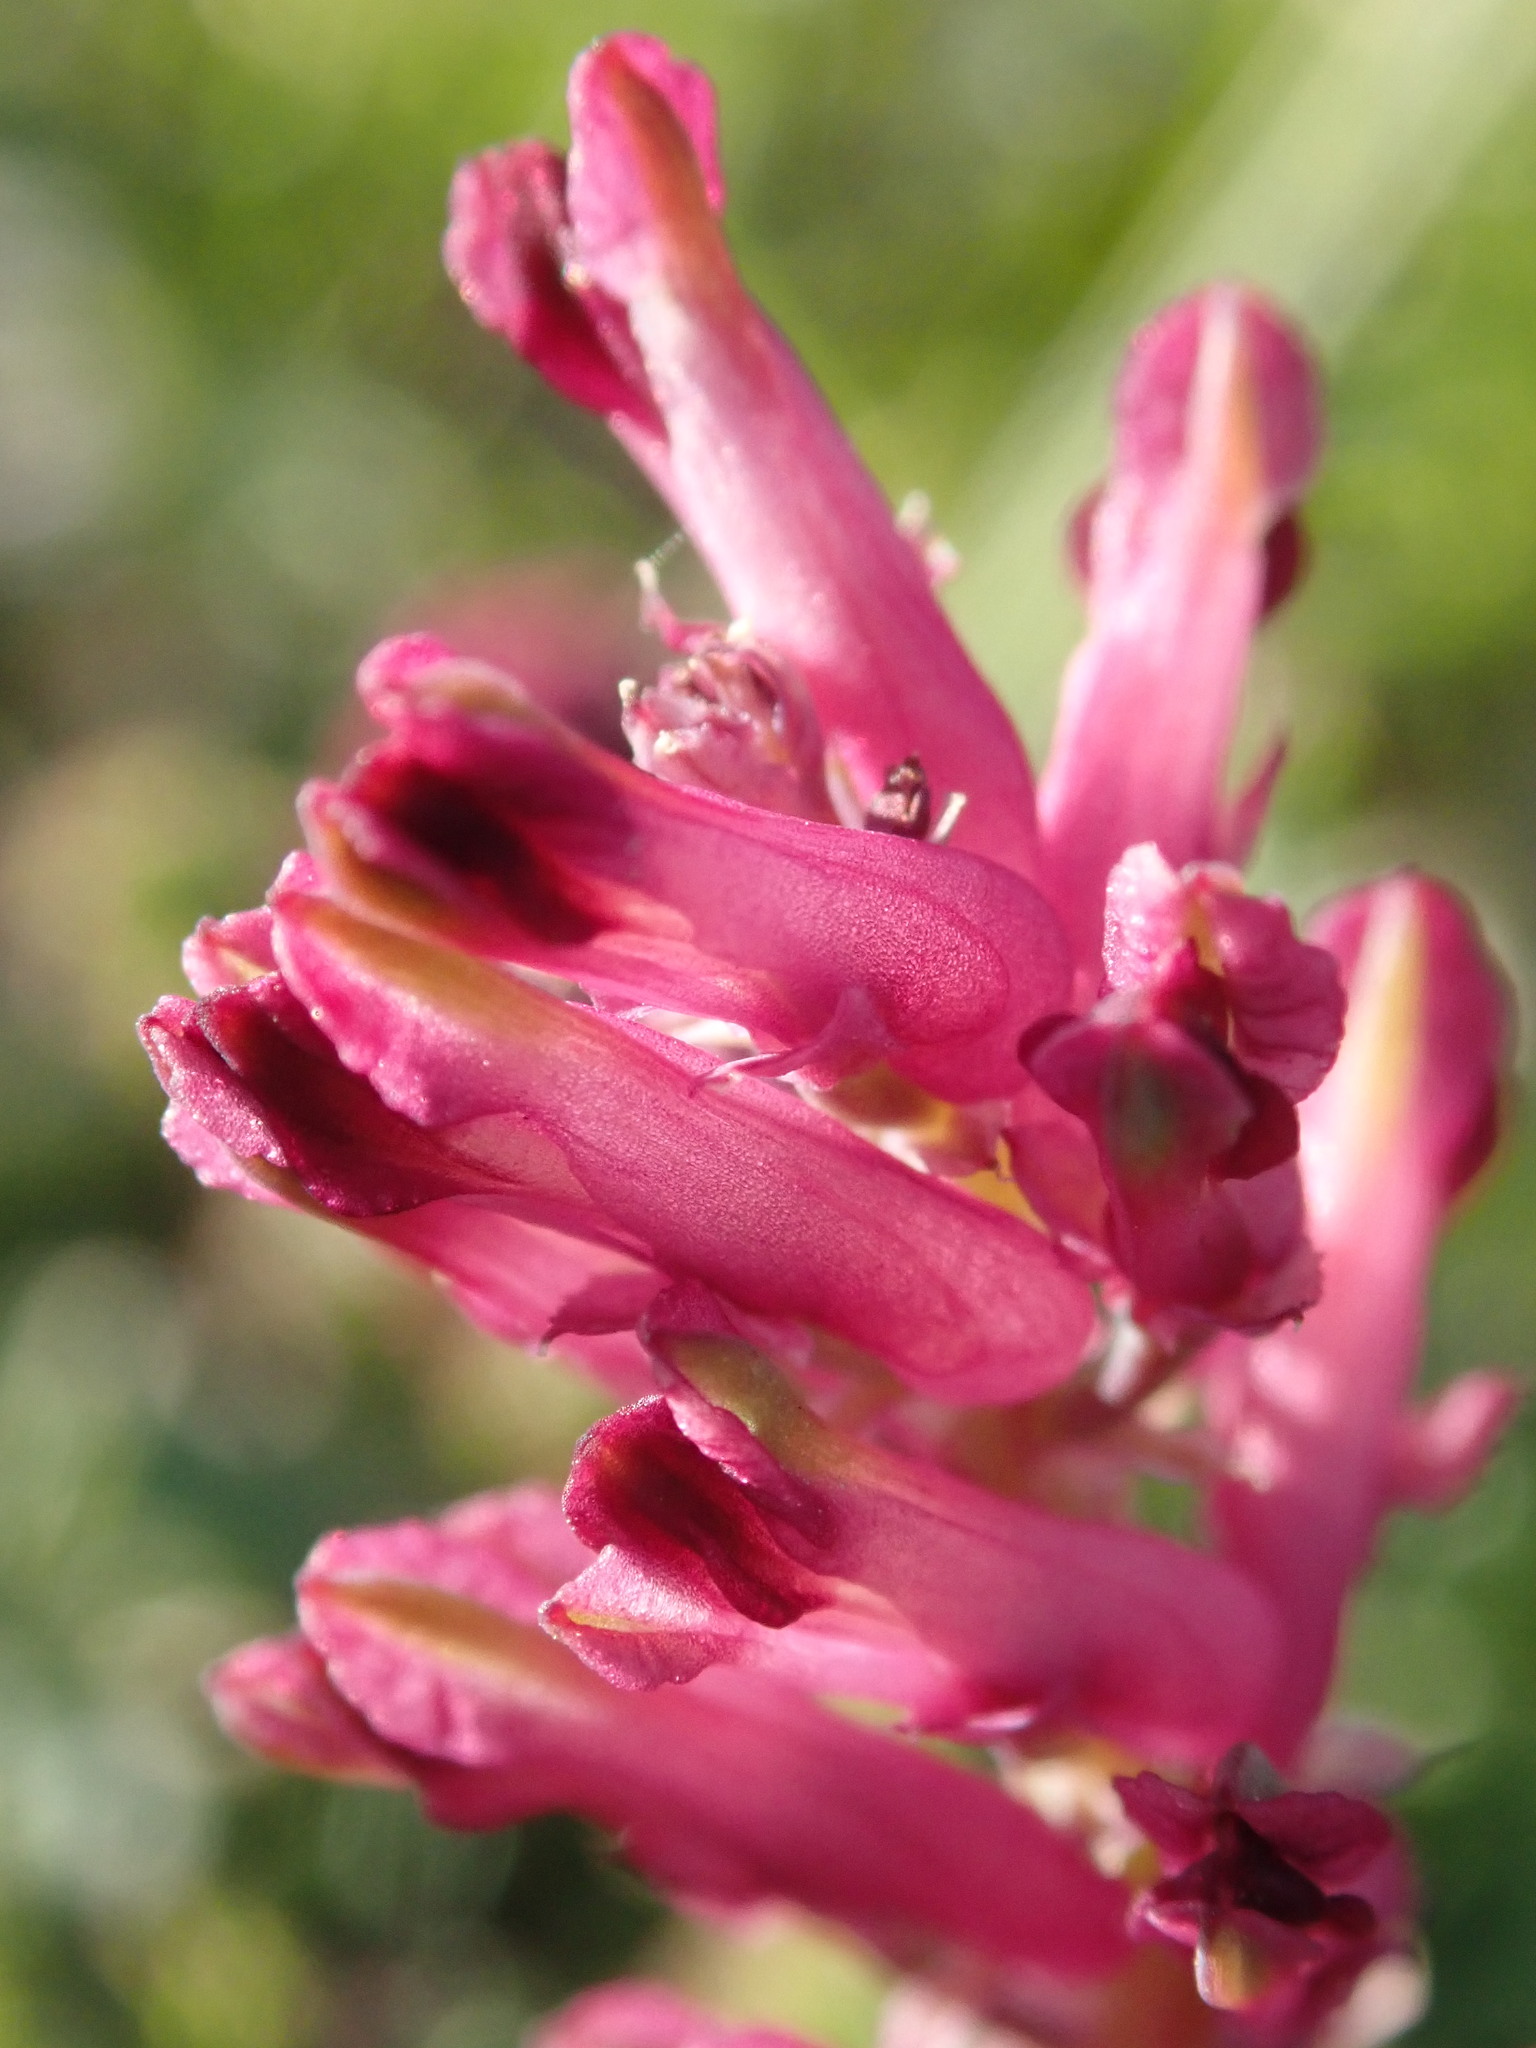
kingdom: Plantae
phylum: Tracheophyta
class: Magnoliopsida
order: Ranunculales
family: Papaveraceae
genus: Fumaria
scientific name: Fumaria officinalis
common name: Common fumitory
